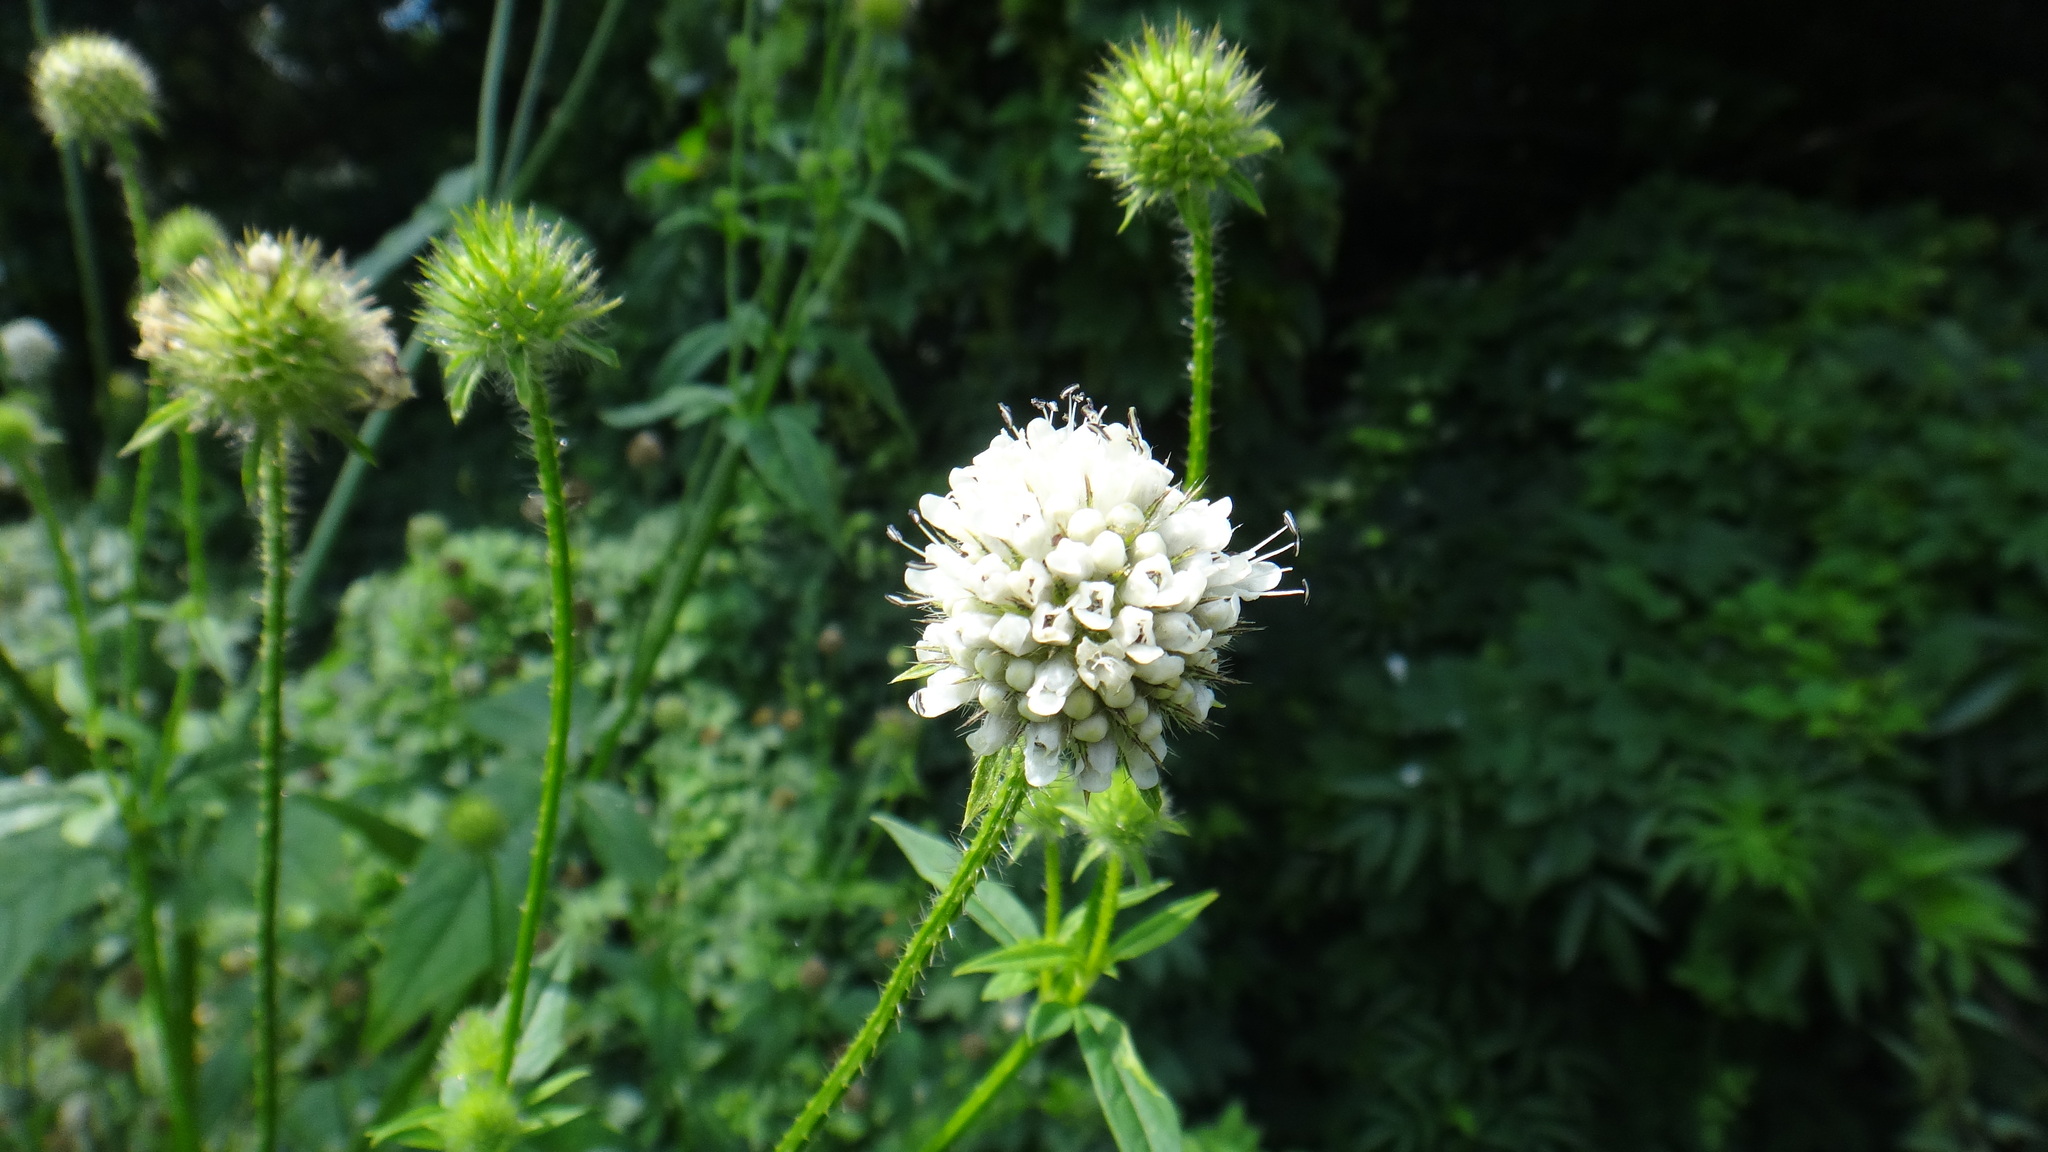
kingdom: Plantae
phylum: Tracheophyta
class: Magnoliopsida
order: Dipsacales
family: Caprifoliaceae
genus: Dipsacus
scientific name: Dipsacus pilosus
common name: Small teasel
